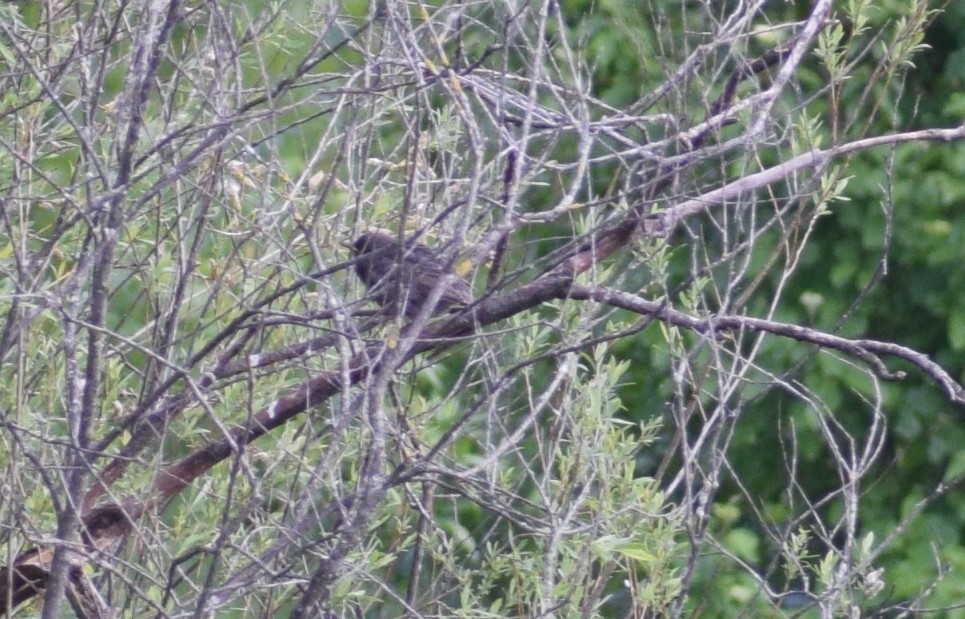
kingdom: Animalia
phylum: Chordata
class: Aves
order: Passeriformes
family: Turdidae
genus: Turdus
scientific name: Turdus merula
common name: Common blackbird
